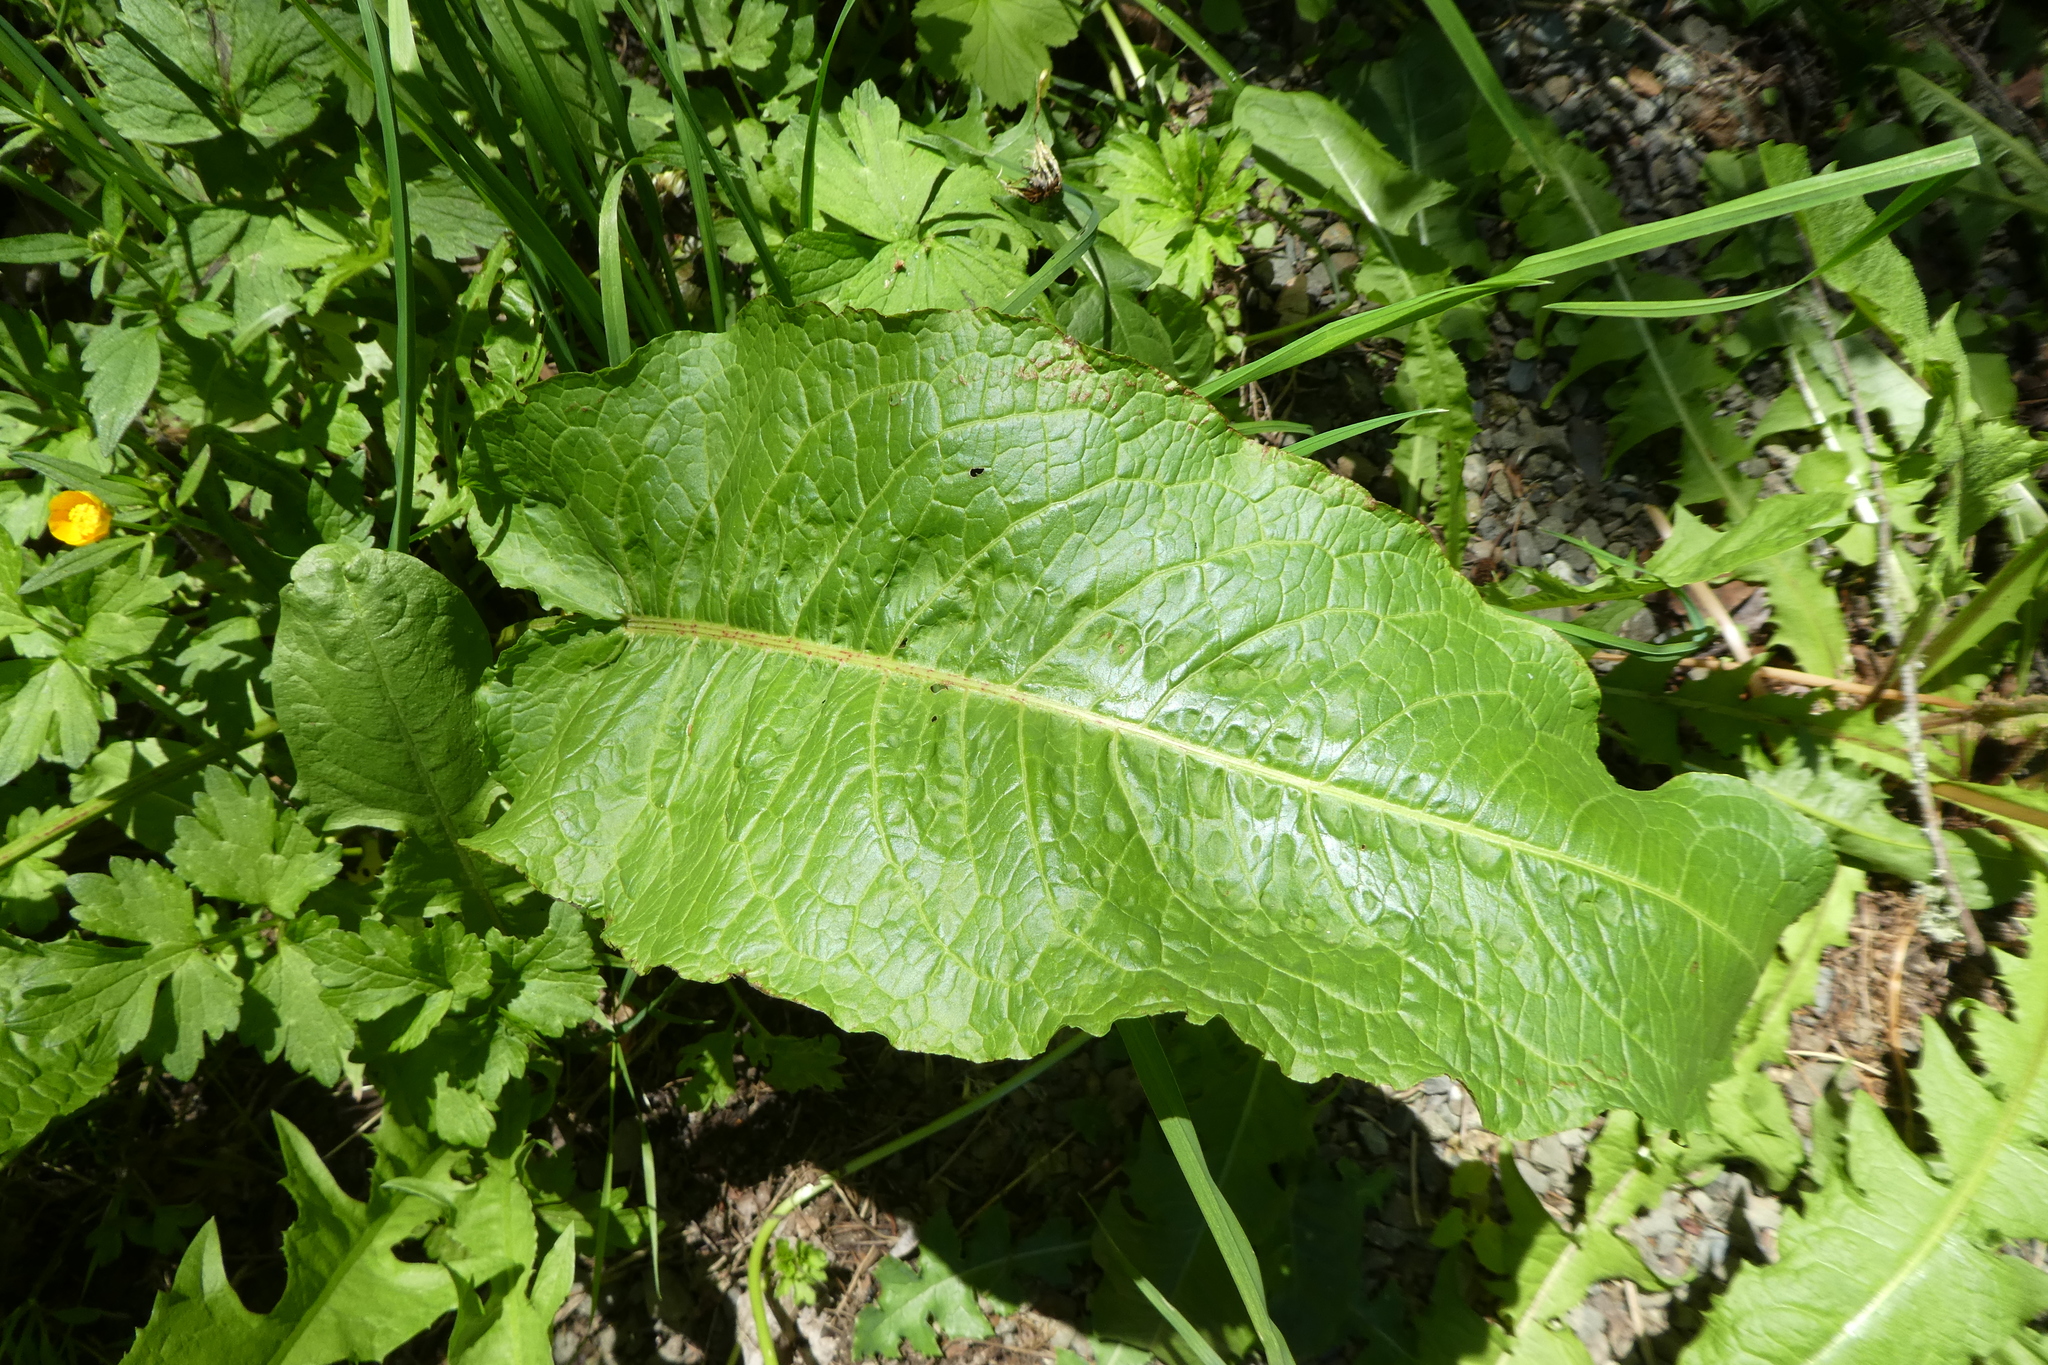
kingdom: Plantae
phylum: Tracheophyta
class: Magnoliopsida
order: Caryophyllales
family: Polygonaceae
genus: Rumex
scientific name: Rumex obtusifolius
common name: Bitter dock
